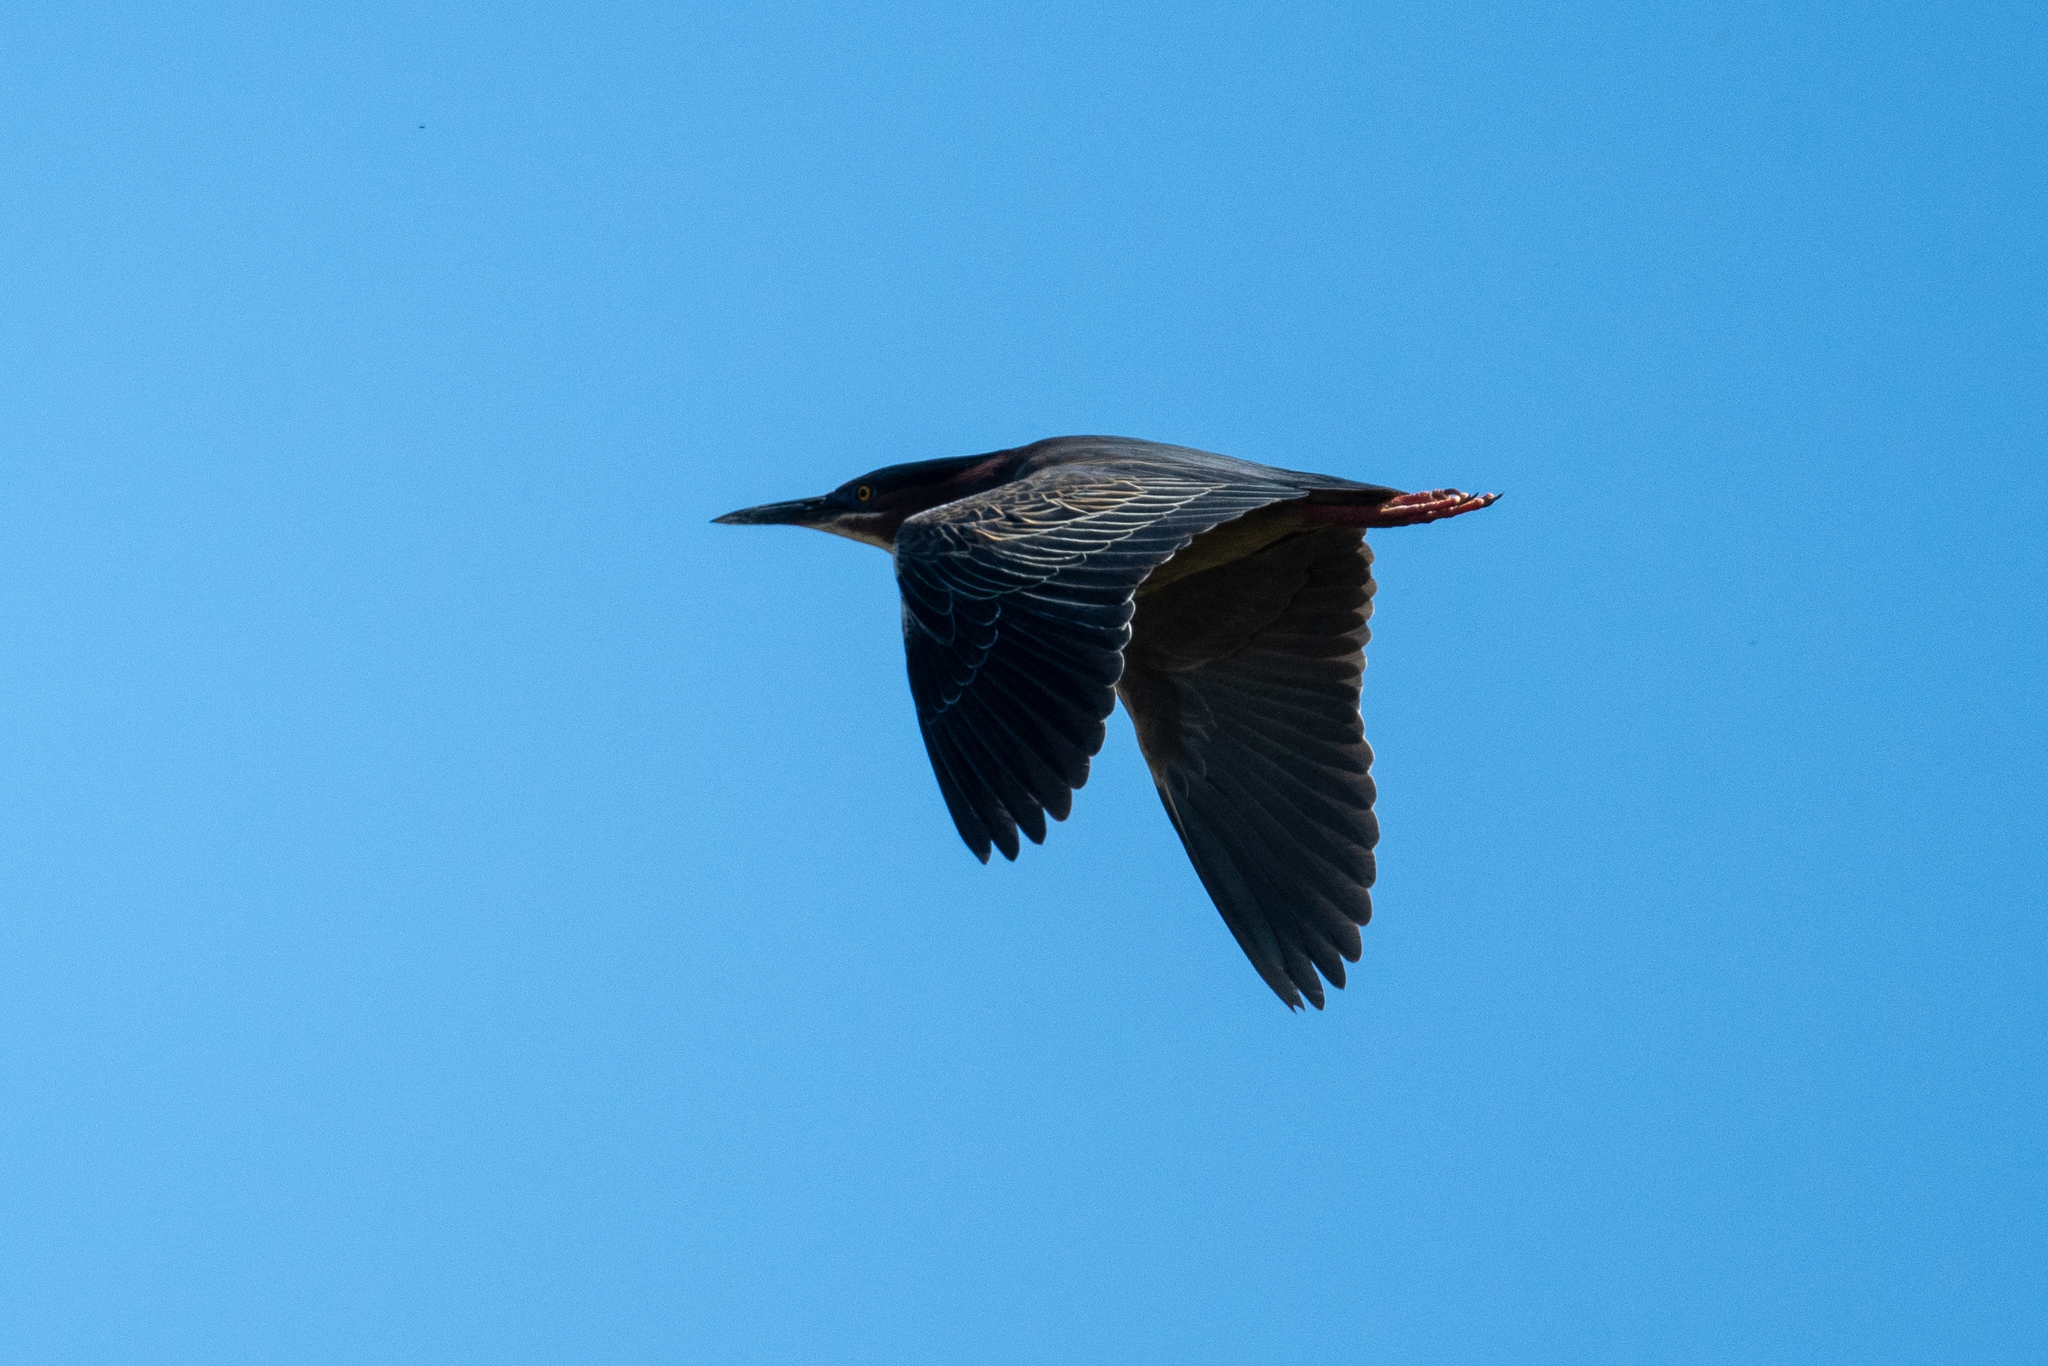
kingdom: Animalia
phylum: Chordata
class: Aves
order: Pelecaniformes
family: Ardeidae
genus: Butorides
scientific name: Butorides virescens
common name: Green heron
